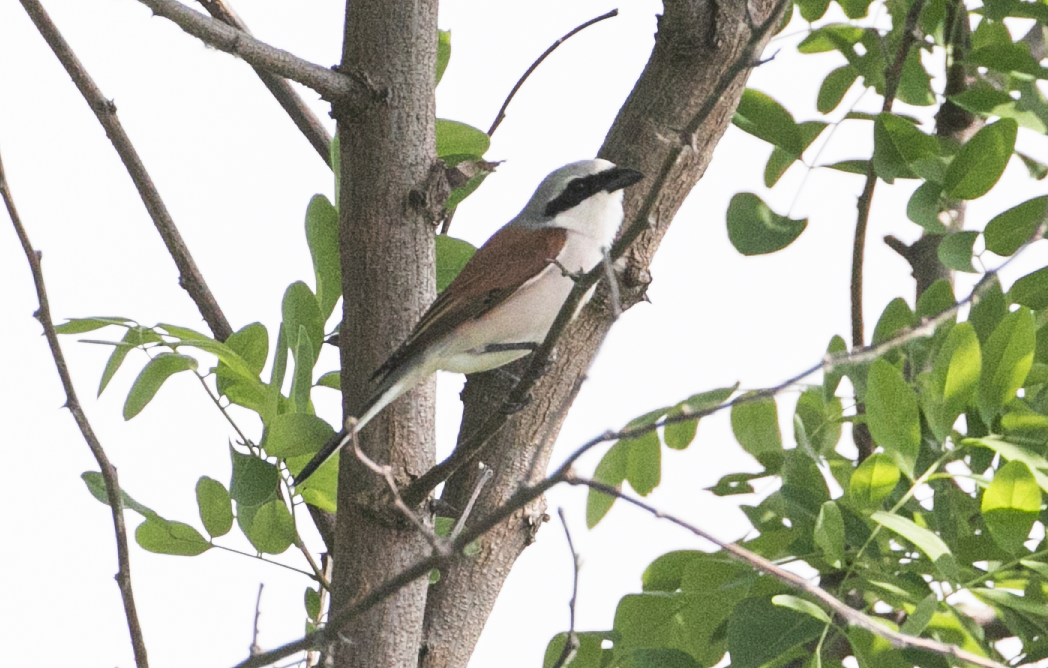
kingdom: Animalia
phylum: Chordata
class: Aves
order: Passeriformes
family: Laniidae
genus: Lanius
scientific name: Lanius collurio
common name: Red-backed shrike
